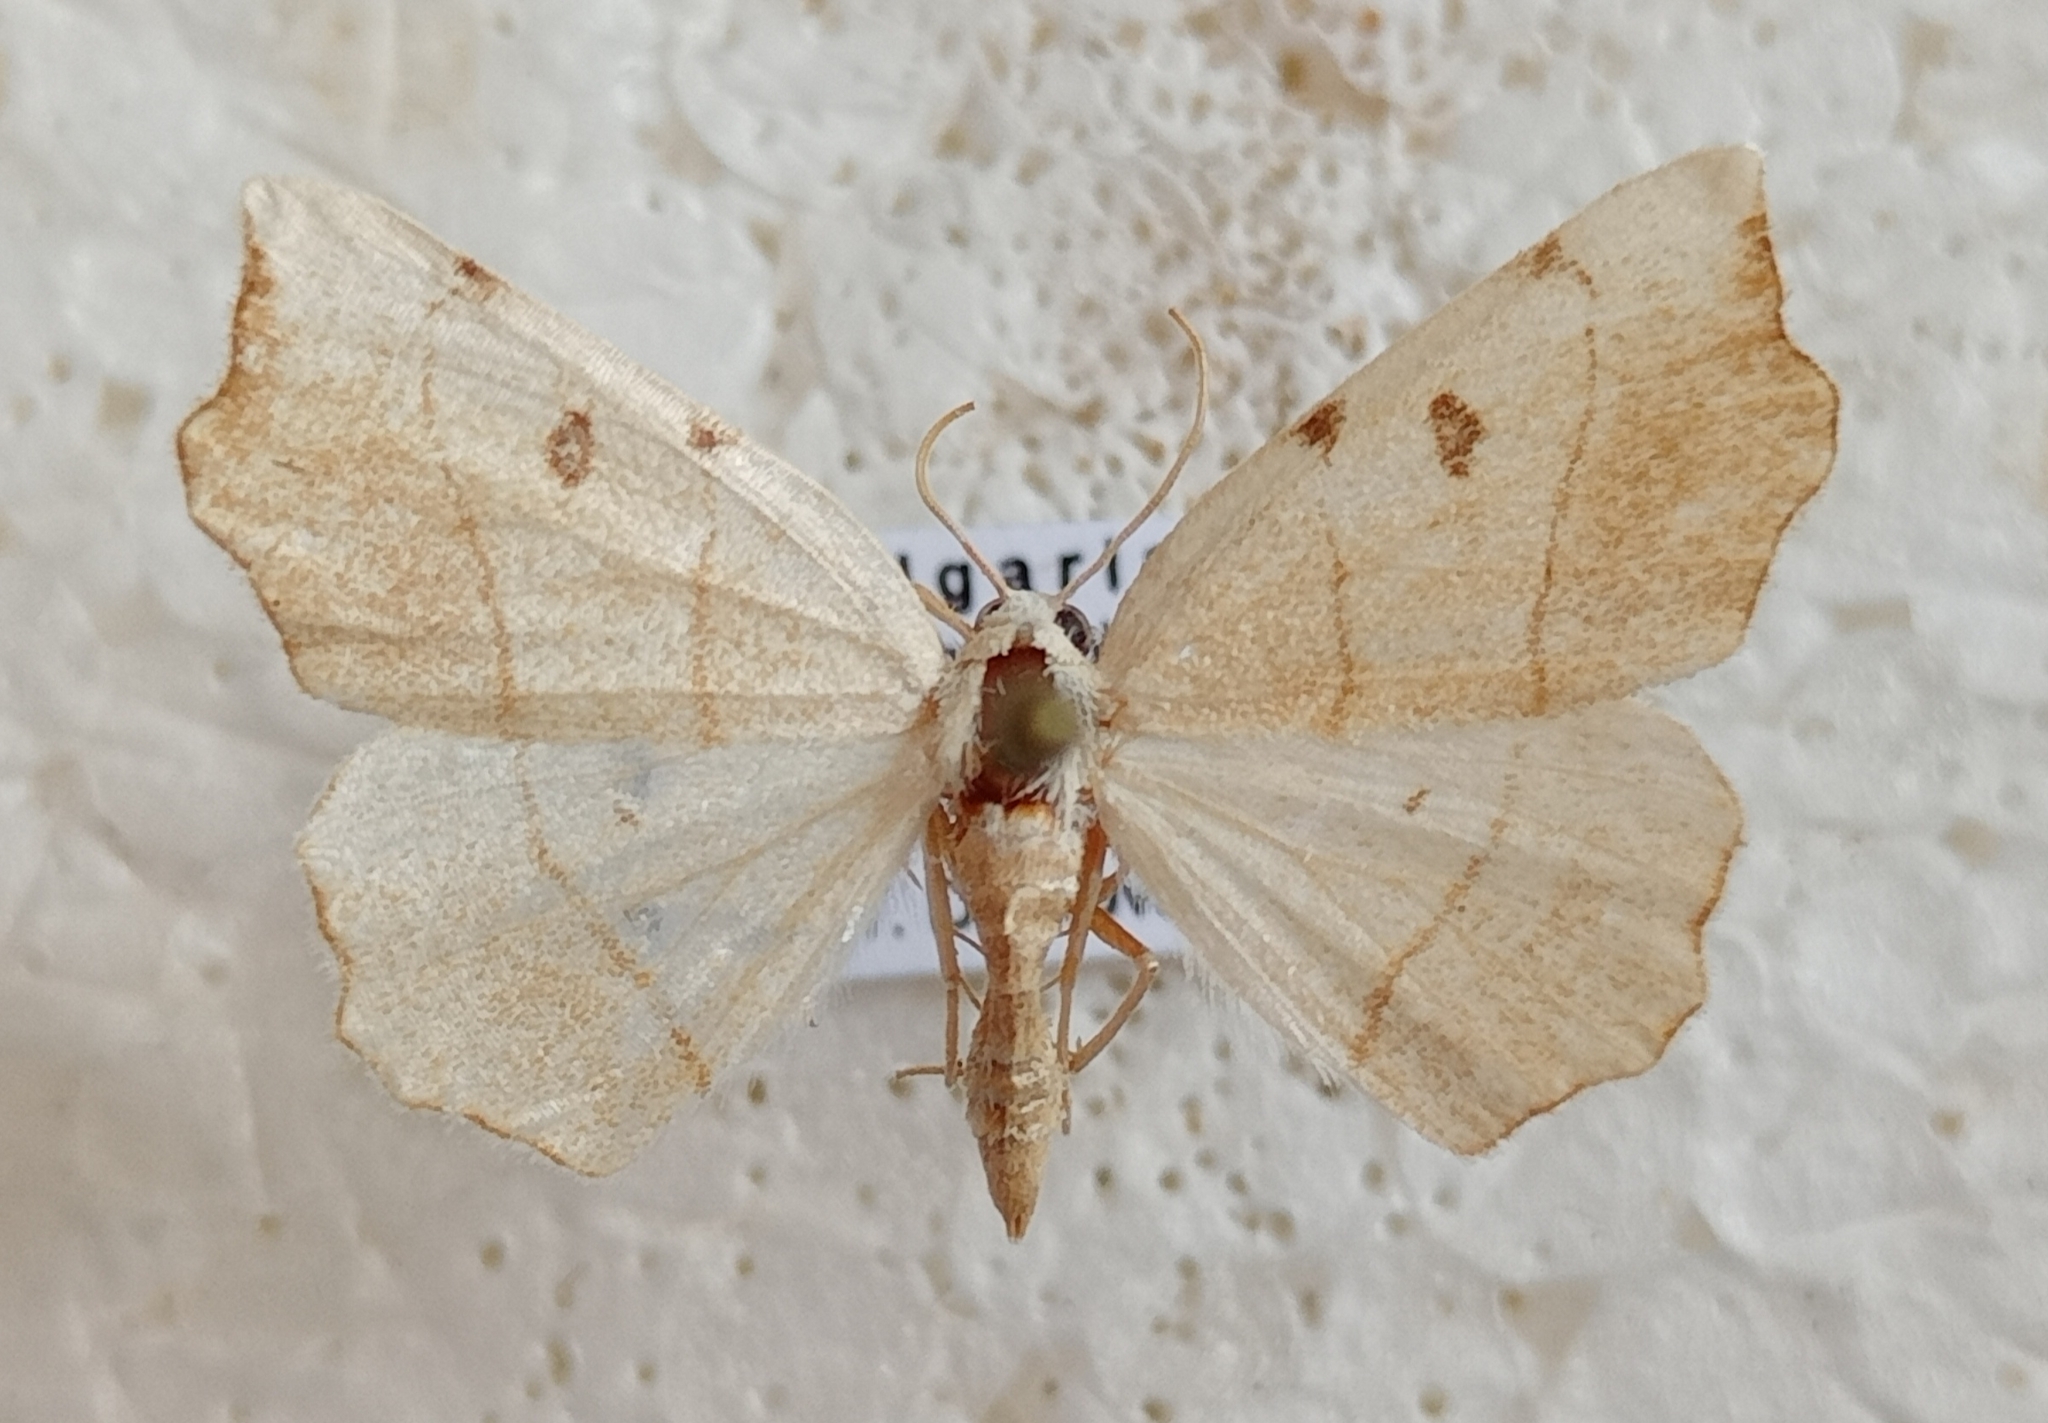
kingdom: Animalia
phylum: Arthropoda
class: Insecta
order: Lepidoptera
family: Geometridae
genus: Eilicrinia
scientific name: Eilicrinia trinotata
